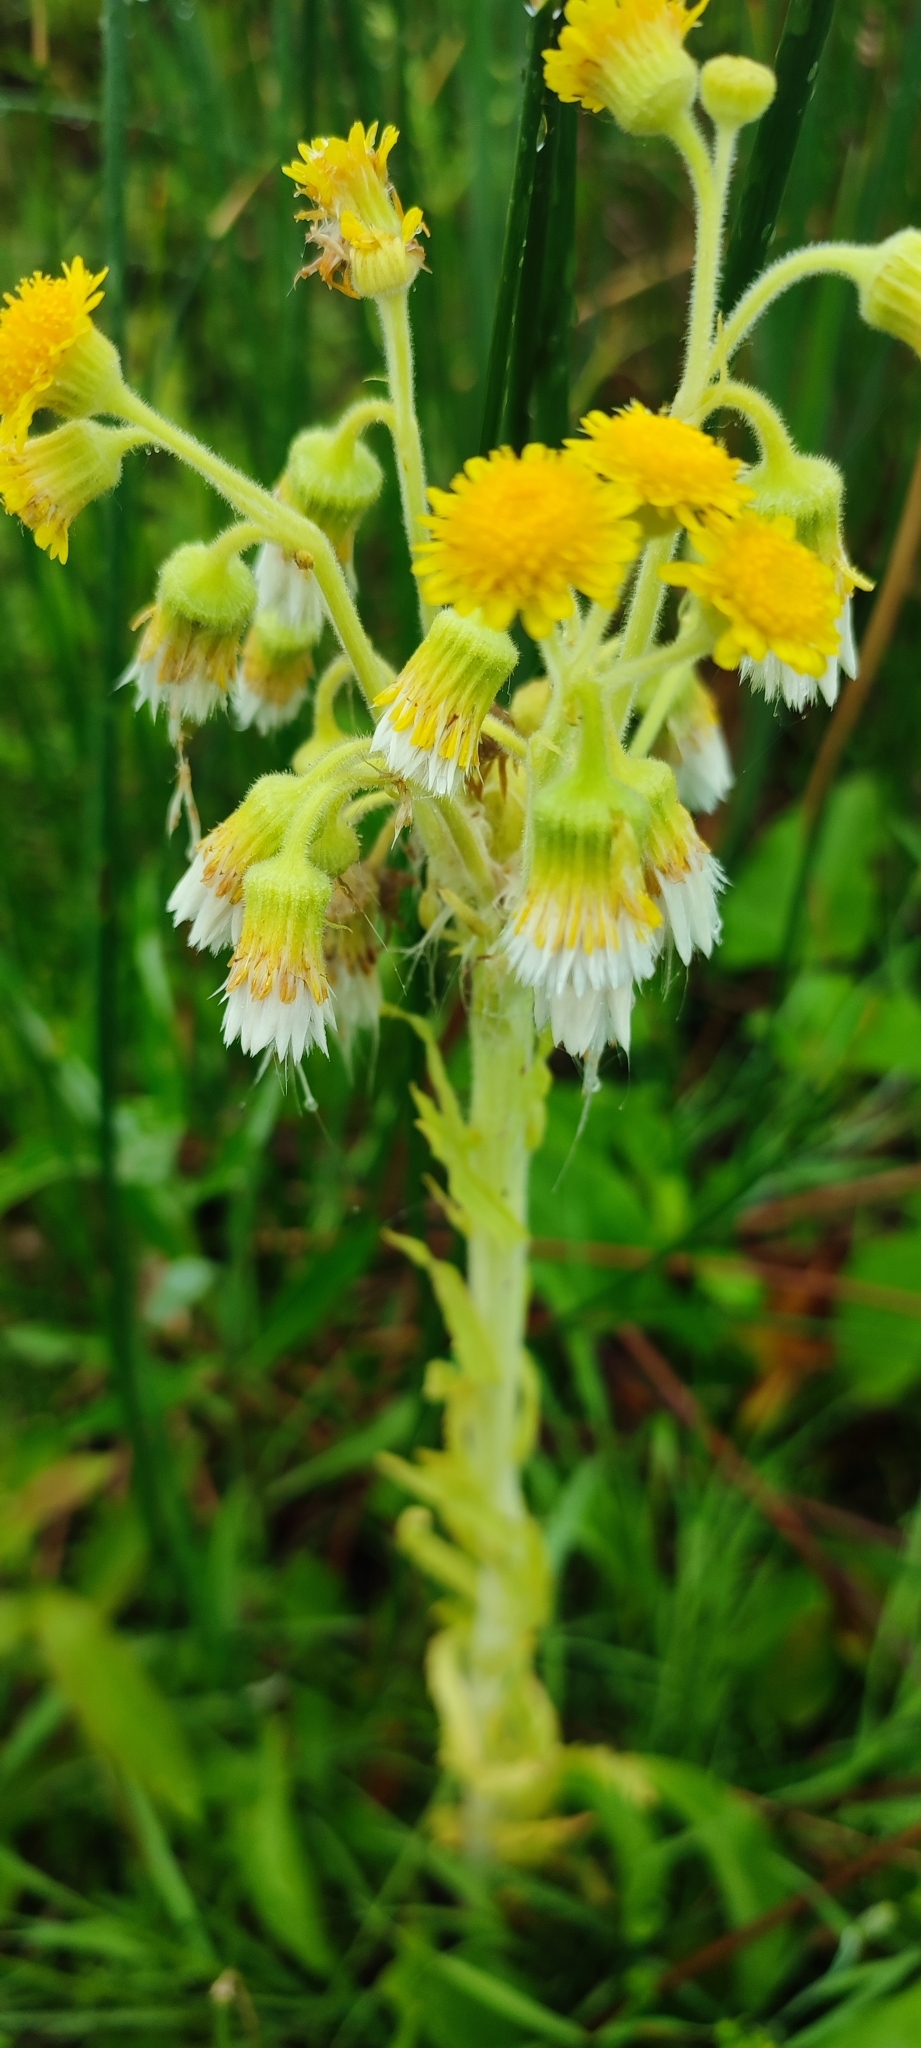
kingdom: Plantae
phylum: Tracheophyta
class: Magnoliopsida
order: Asterales
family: Asteraceae
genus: Tephroseris
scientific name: Tephroseris palustris
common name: Marsh fleawort
